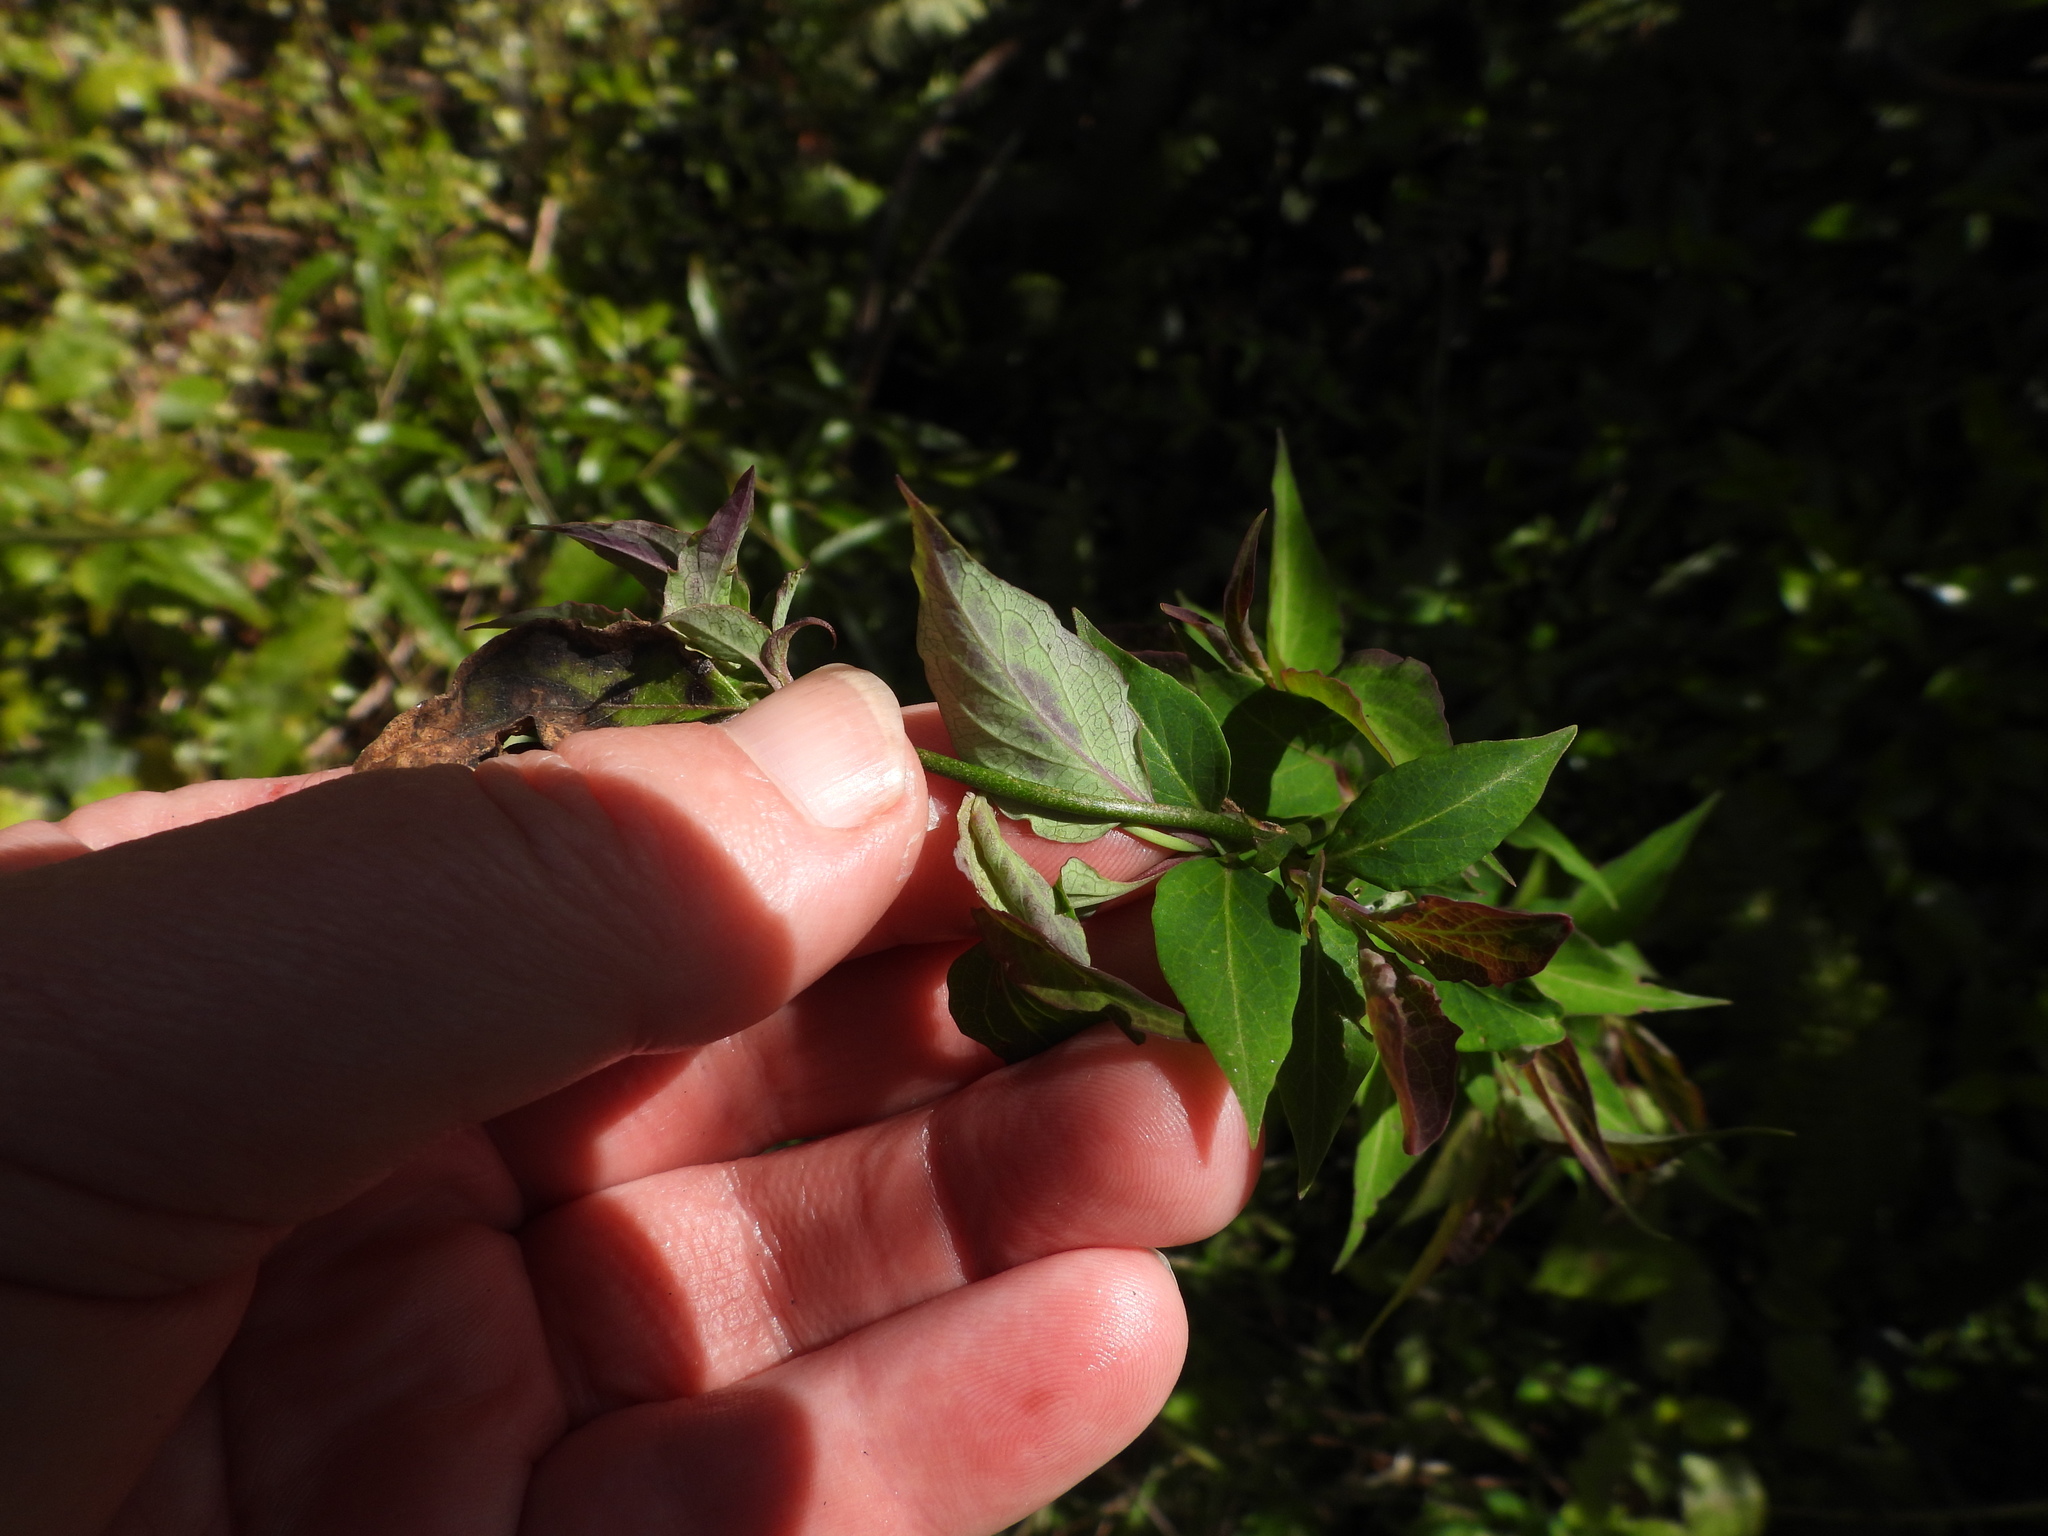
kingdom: Plantae
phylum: Tracheophyta
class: Magnoliopsida
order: Dipsacales
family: Caprifoliaceae
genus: Leycesteria
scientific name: Leycesteria formosa
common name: Himalayan honeysuckle
